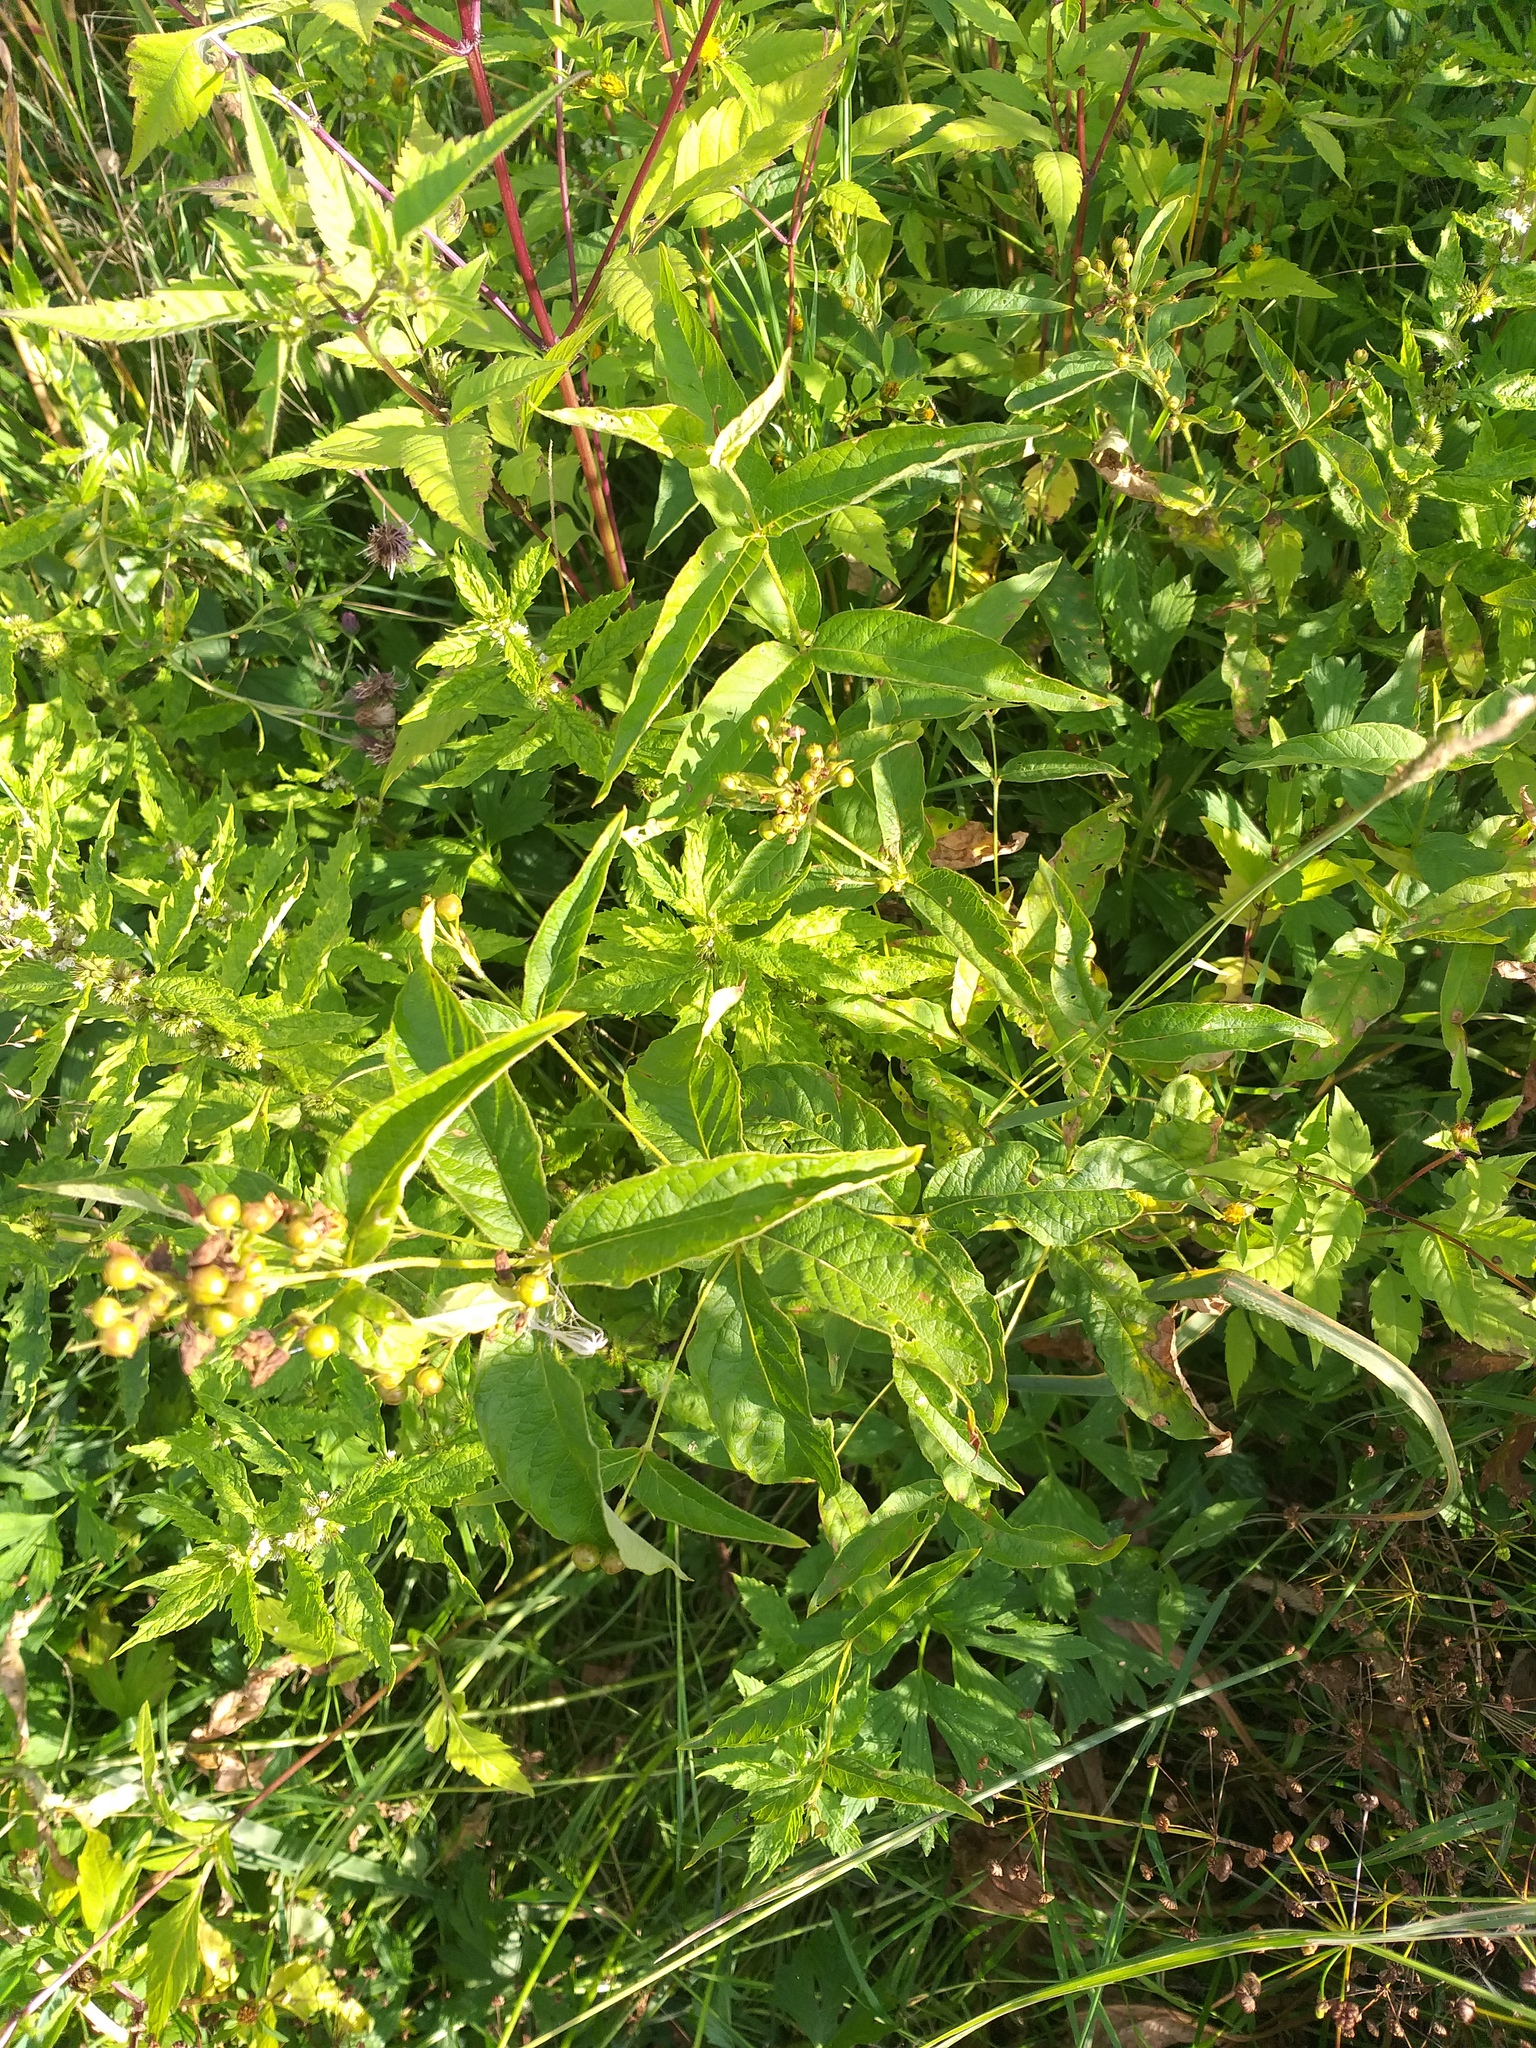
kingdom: Plantae
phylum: Tracheophyta
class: Magnoliopsida
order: Ericales
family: Primulaceae
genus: Lysimachia
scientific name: Lysimachia vulgaris
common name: Yellow loosestrife
